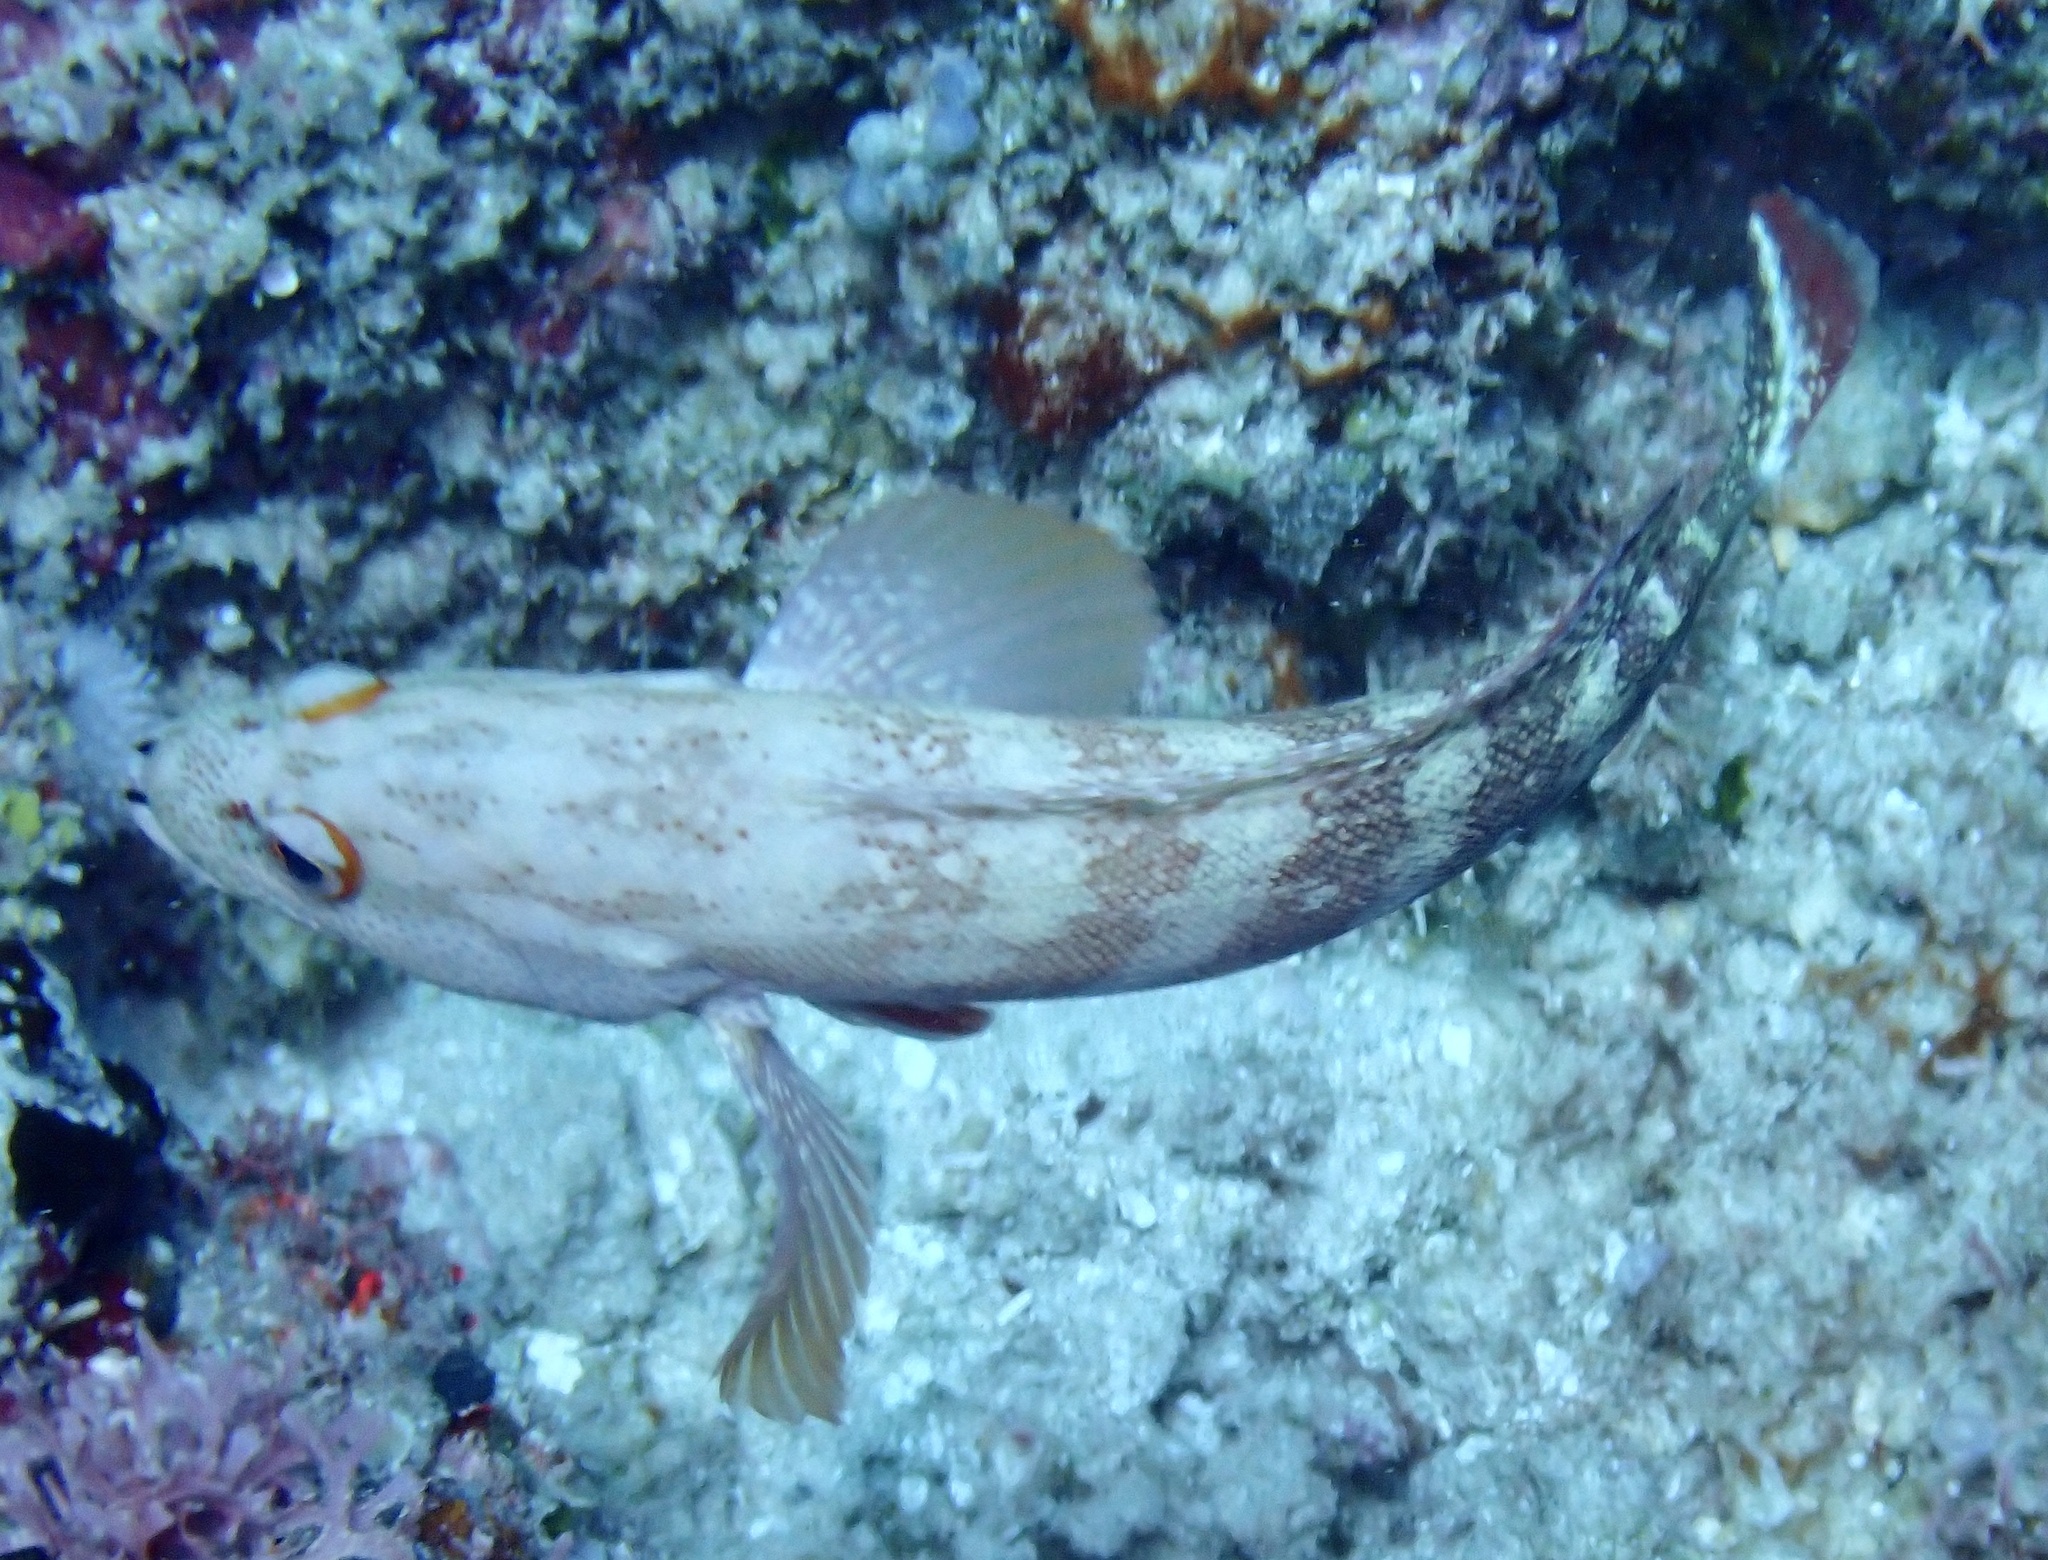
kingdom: Animalia
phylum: Chordata
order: Perciformes
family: Serranidae
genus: Cephalopholis
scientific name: Cephalopholis urodeta
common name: Darkfin hind
